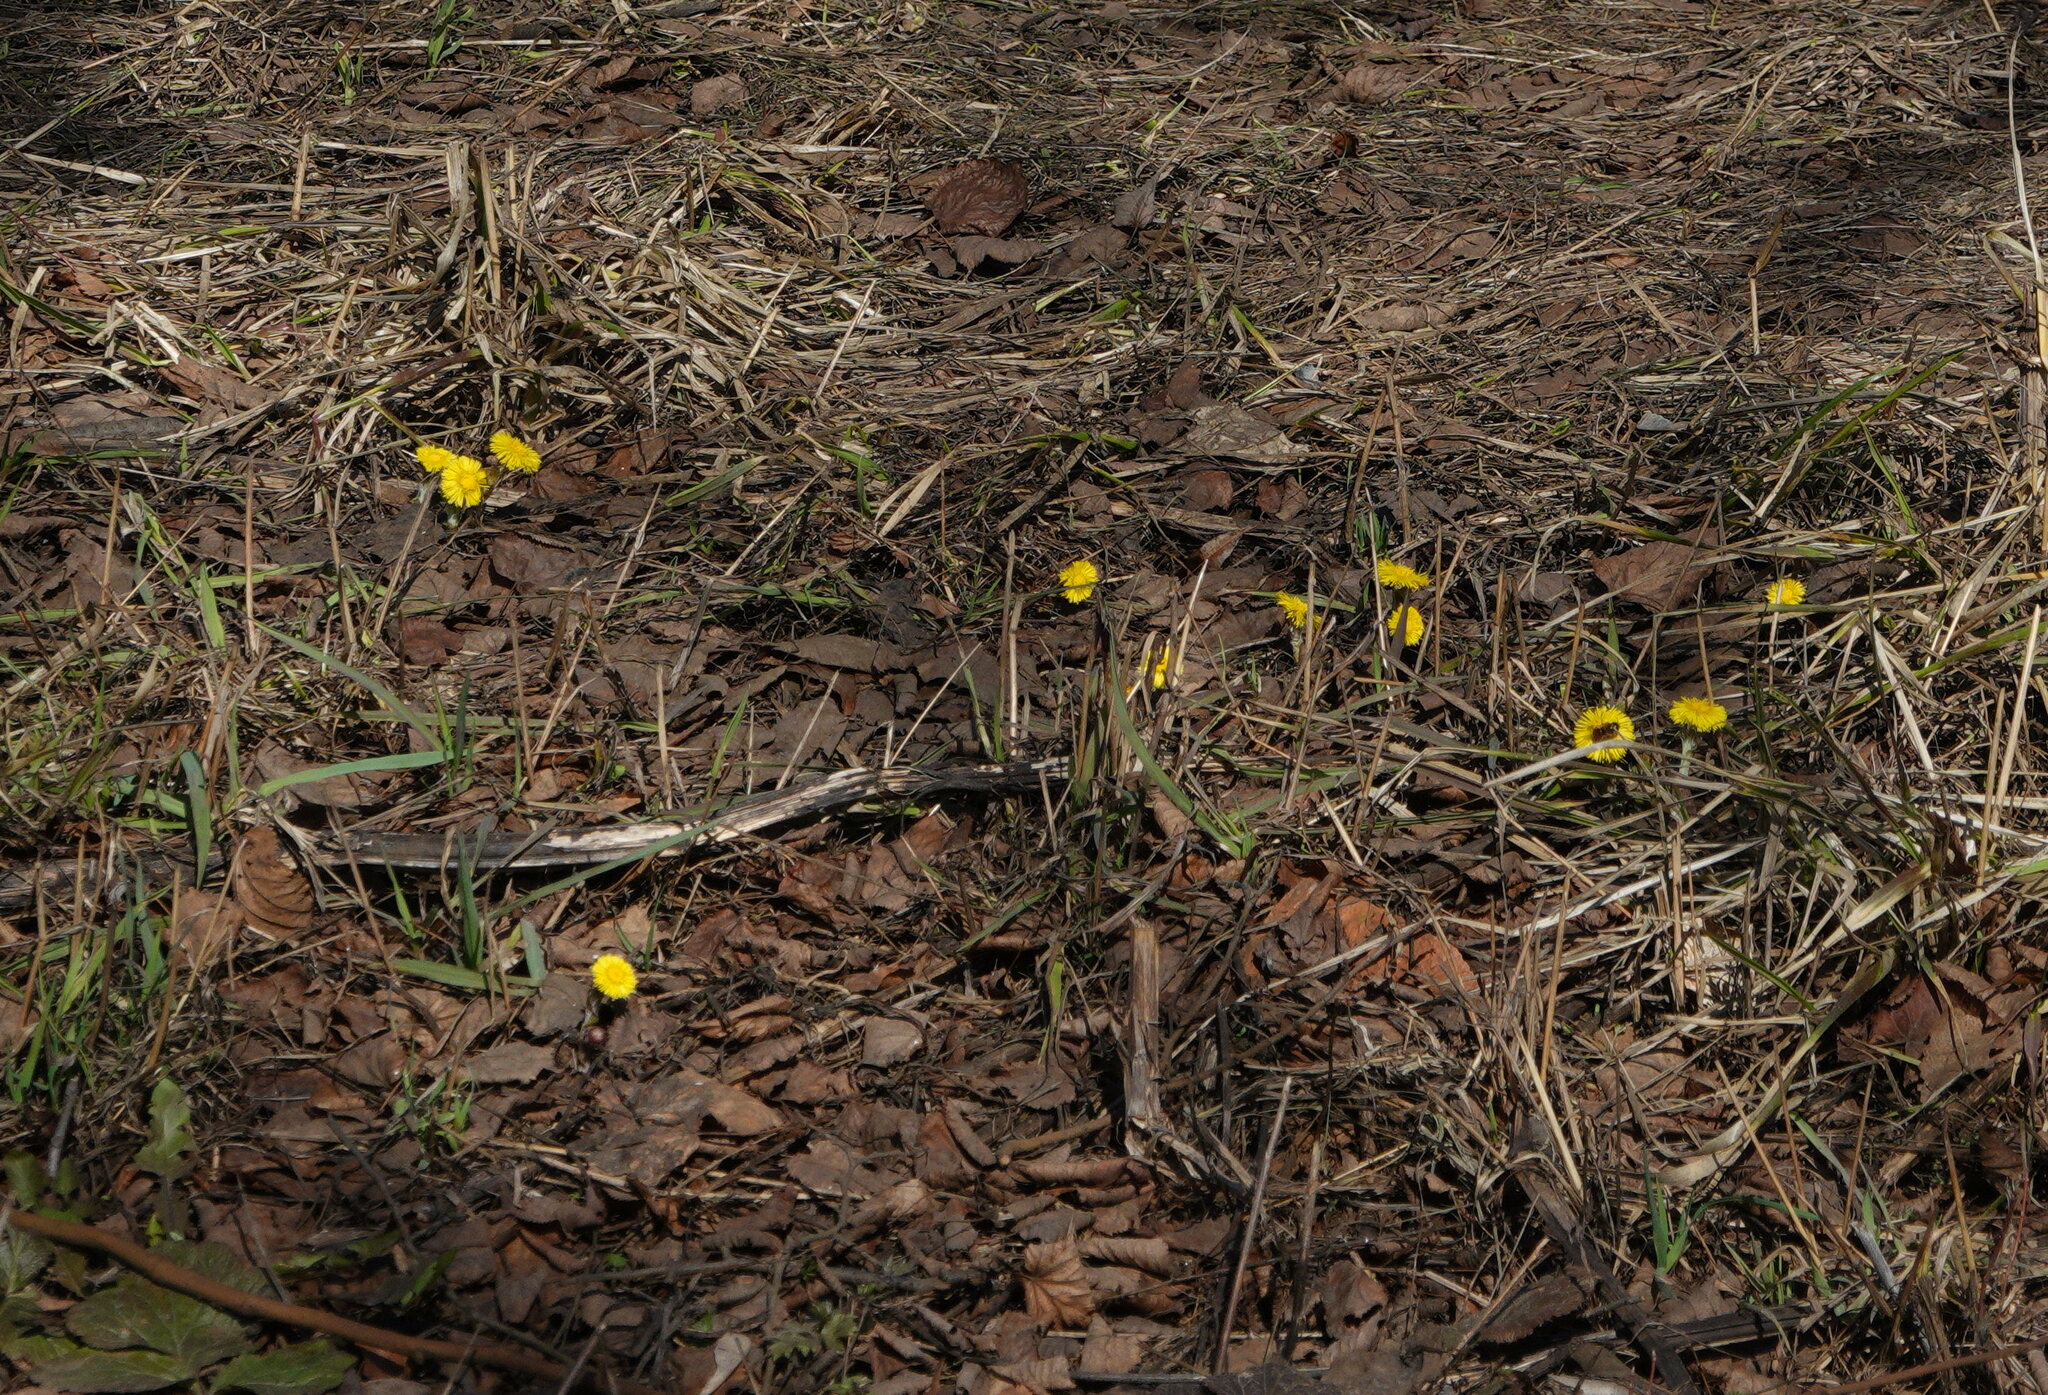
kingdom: Plantae
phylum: Tracheophyta
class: Magnoliopsida
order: Asterales
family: Asteraceae
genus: Tussilago
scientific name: Tussilago farfara
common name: Coltsfoot
